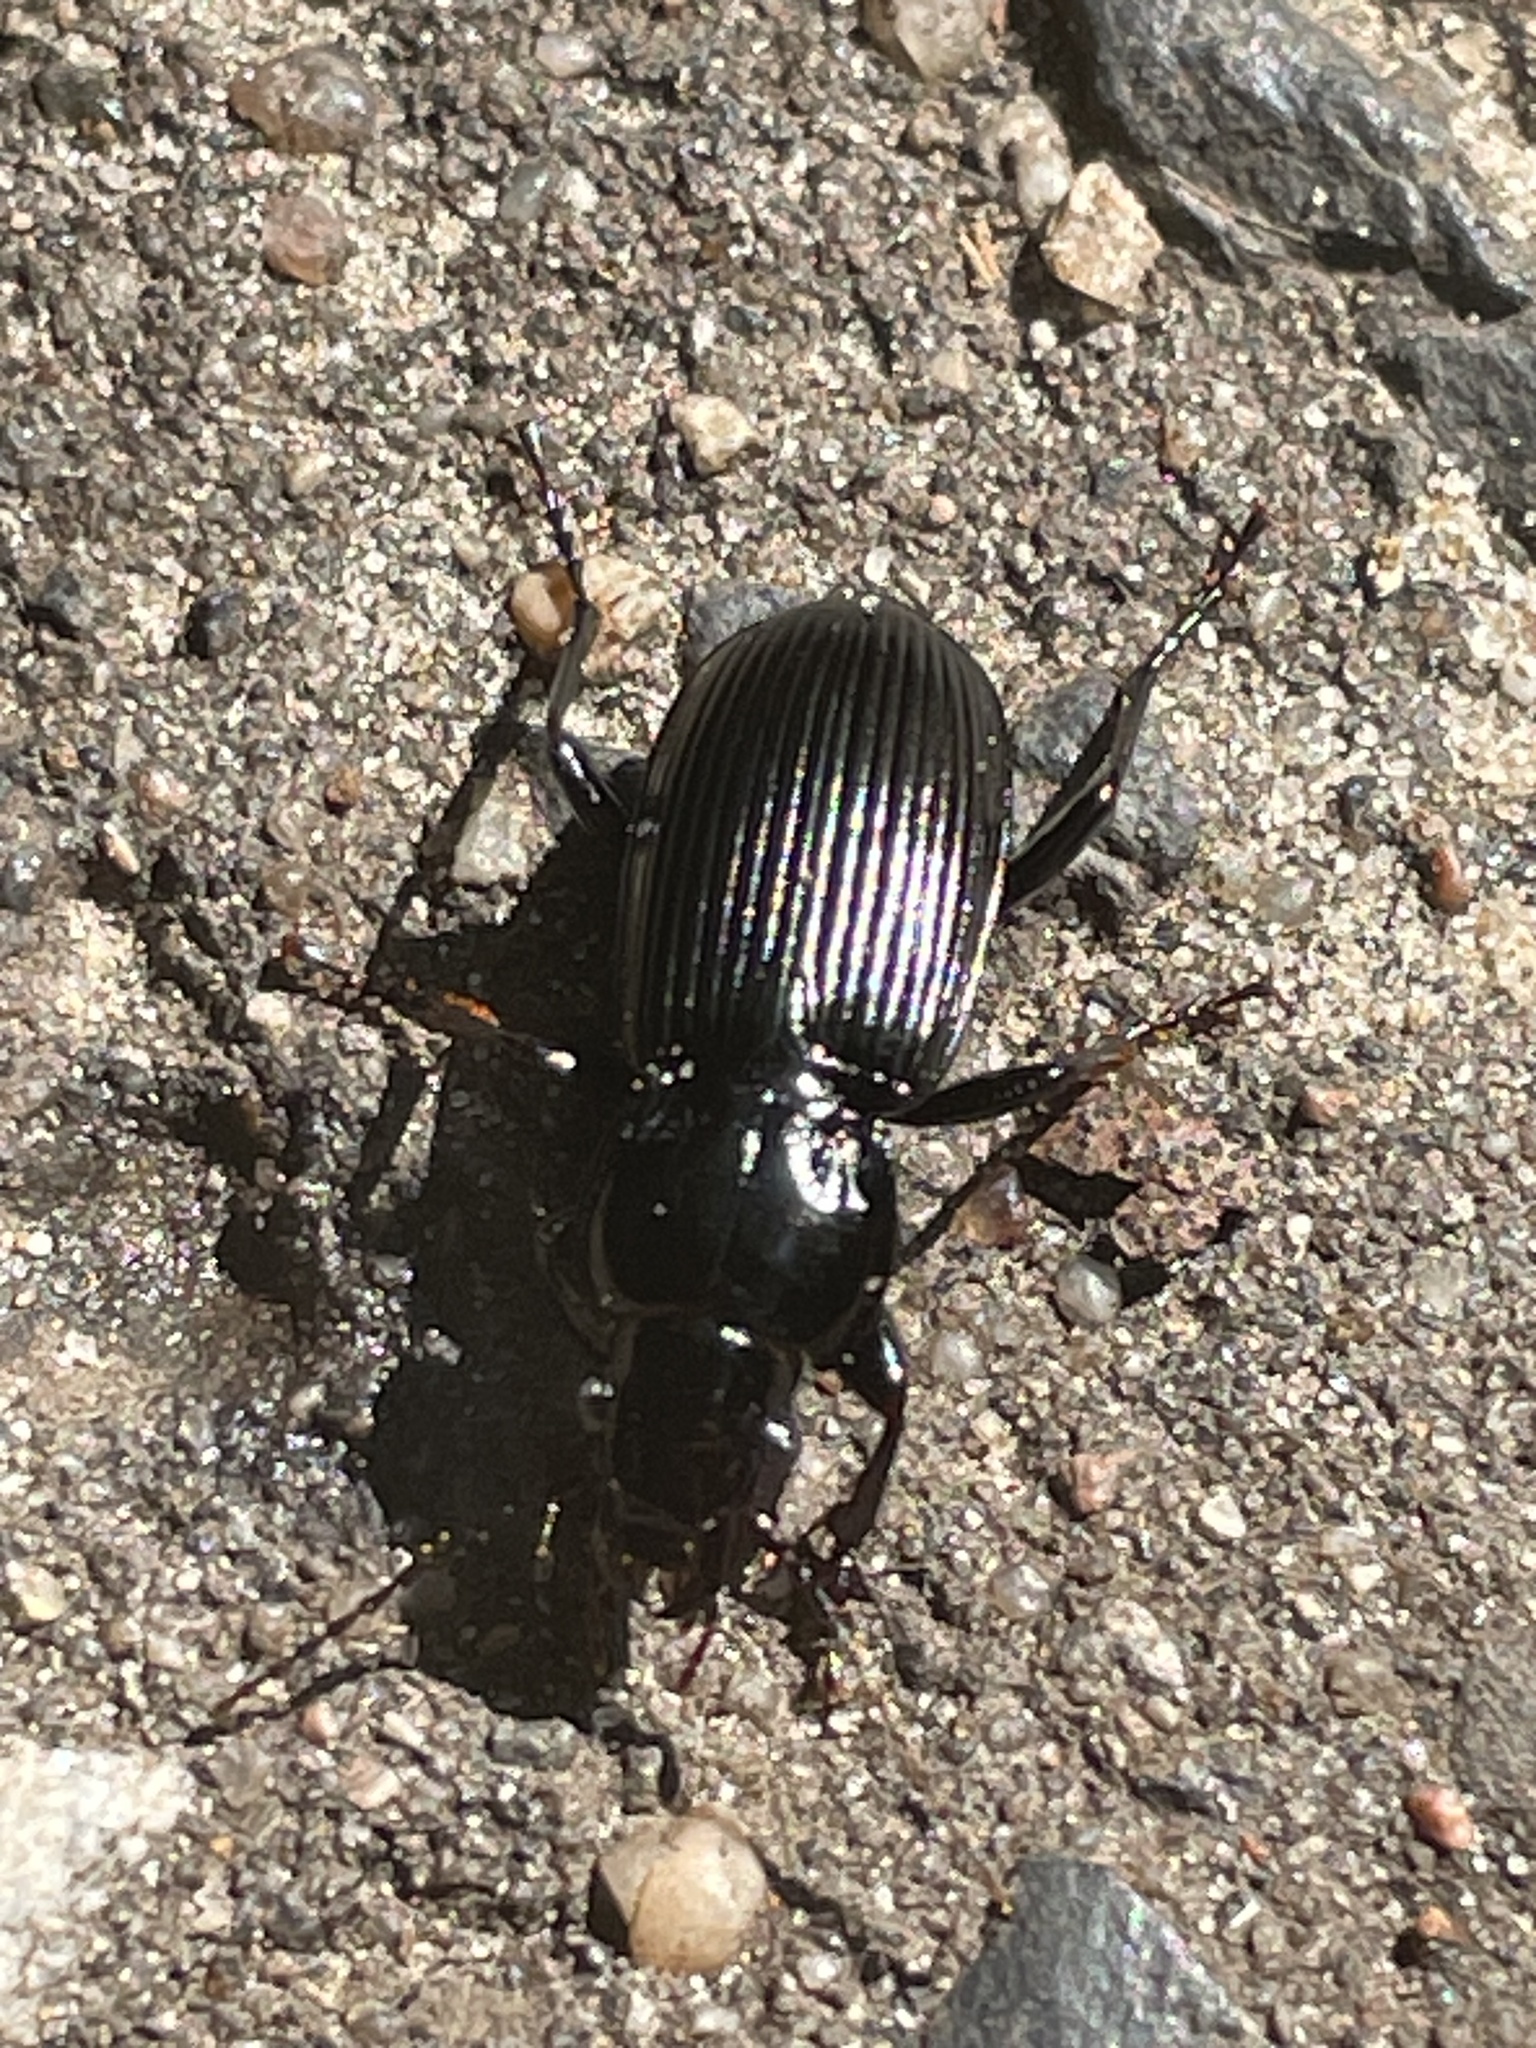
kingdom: Animalia
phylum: Arthropoda
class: Insecta
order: Coleoptera
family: Carabidae
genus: Pterostichus
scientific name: Pterostichus melanarius
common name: European dark harp ground beetle
